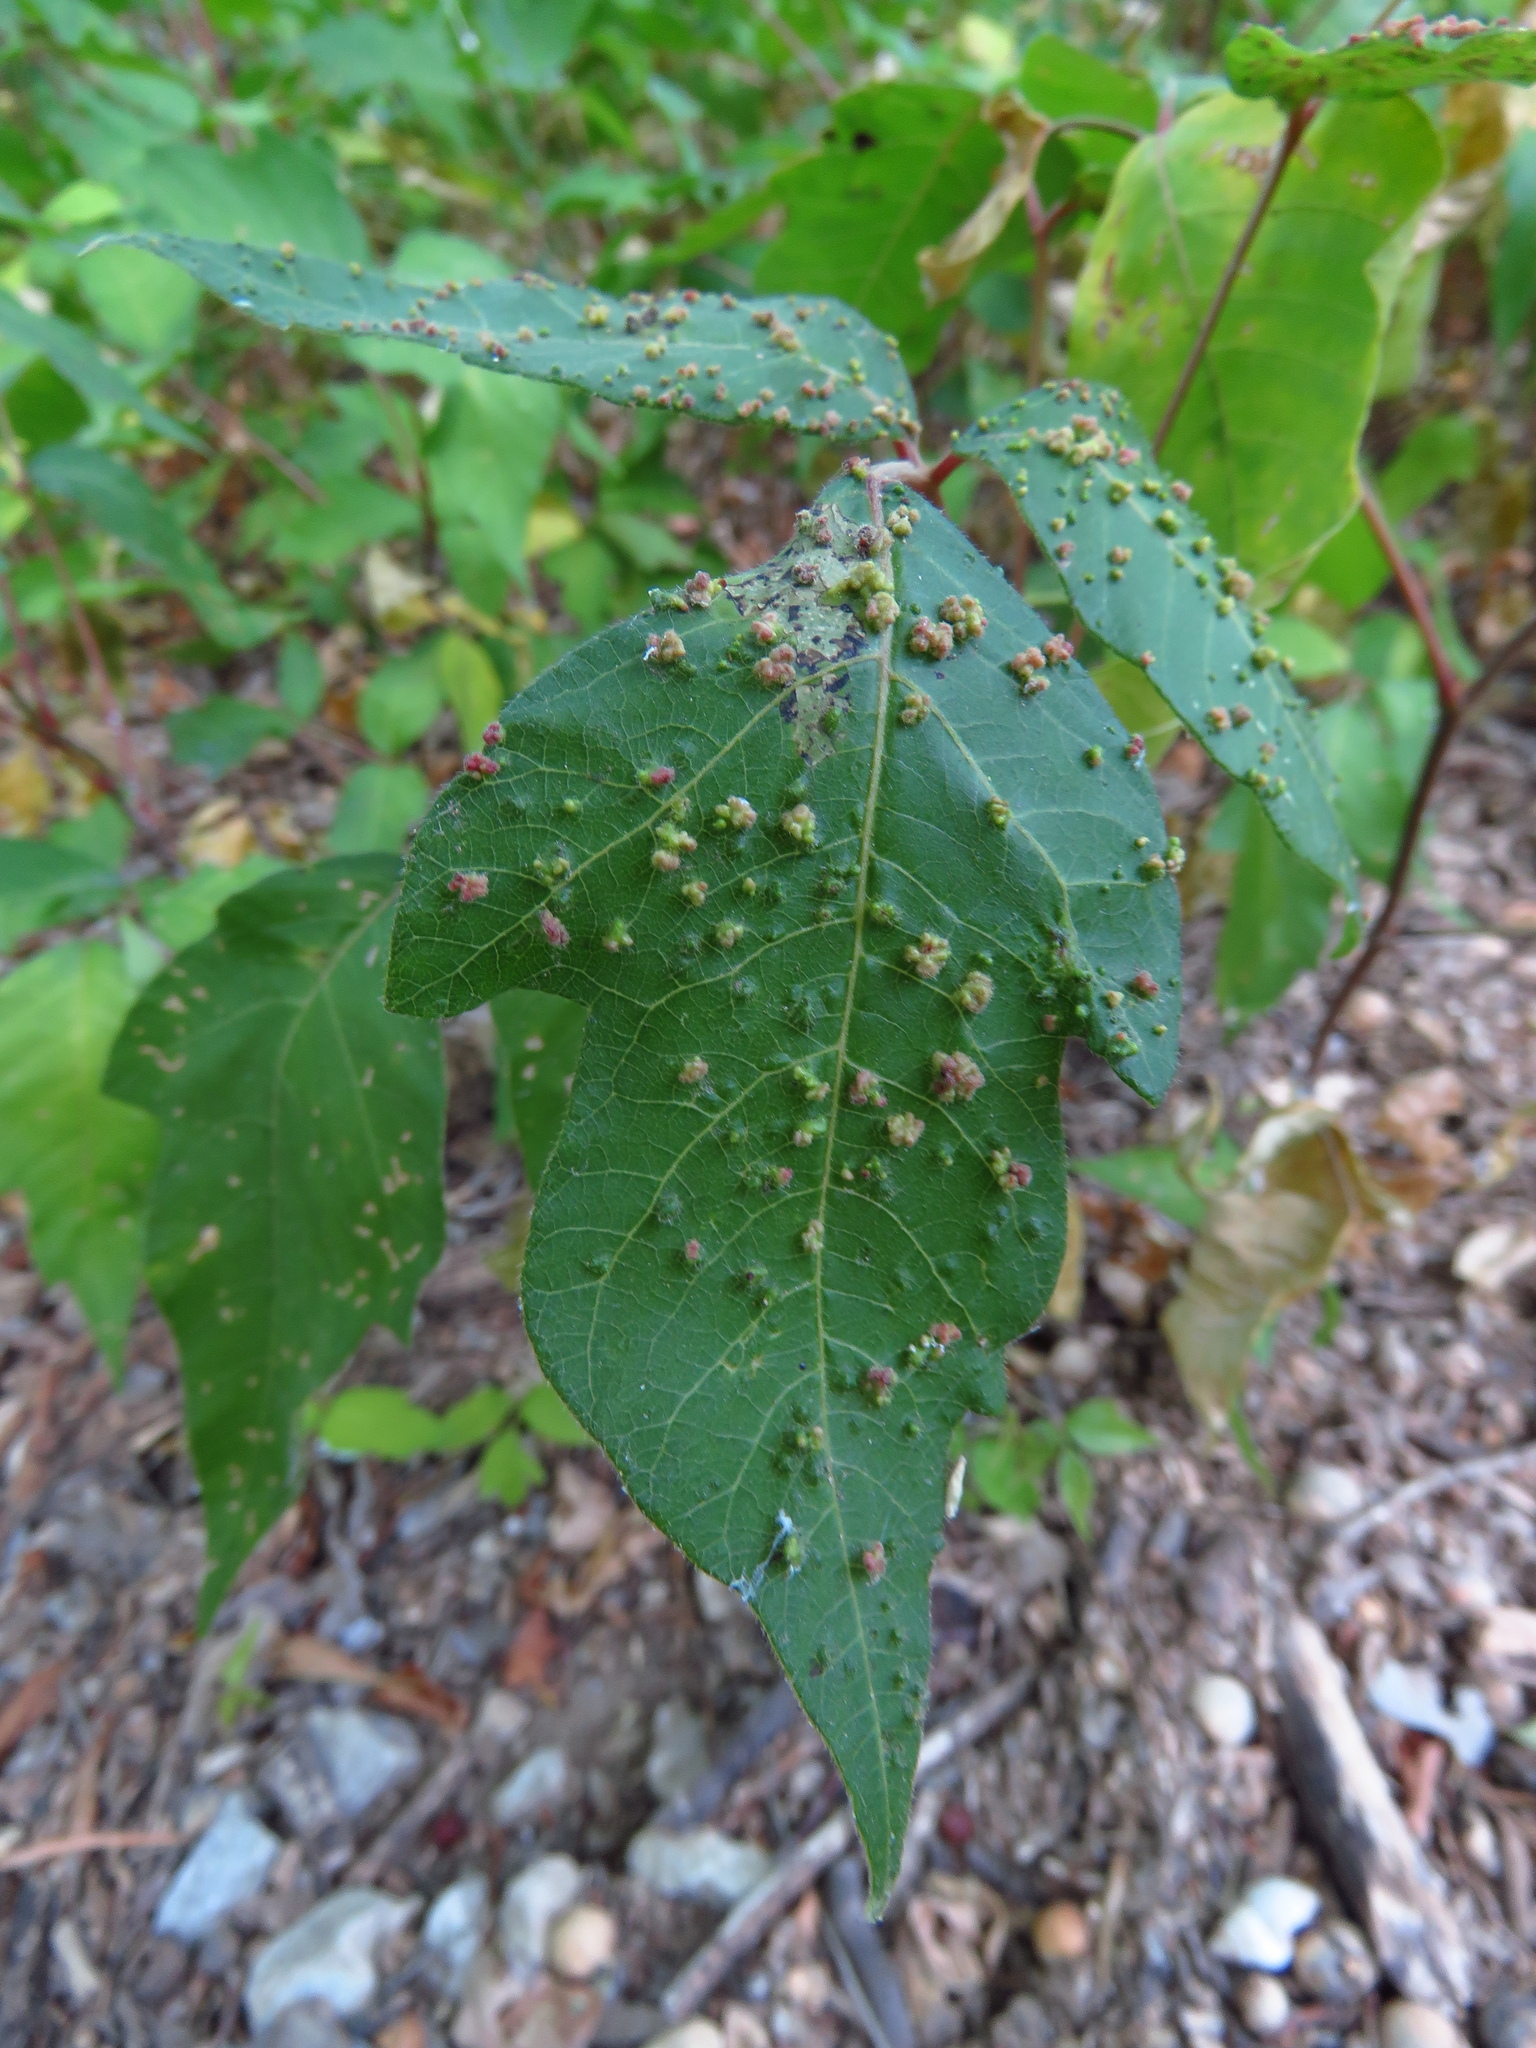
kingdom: Animalia
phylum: Arthropoda
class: Arachnida
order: Trombidiformes
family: Eriophyidae
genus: Aculops
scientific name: Aculops
